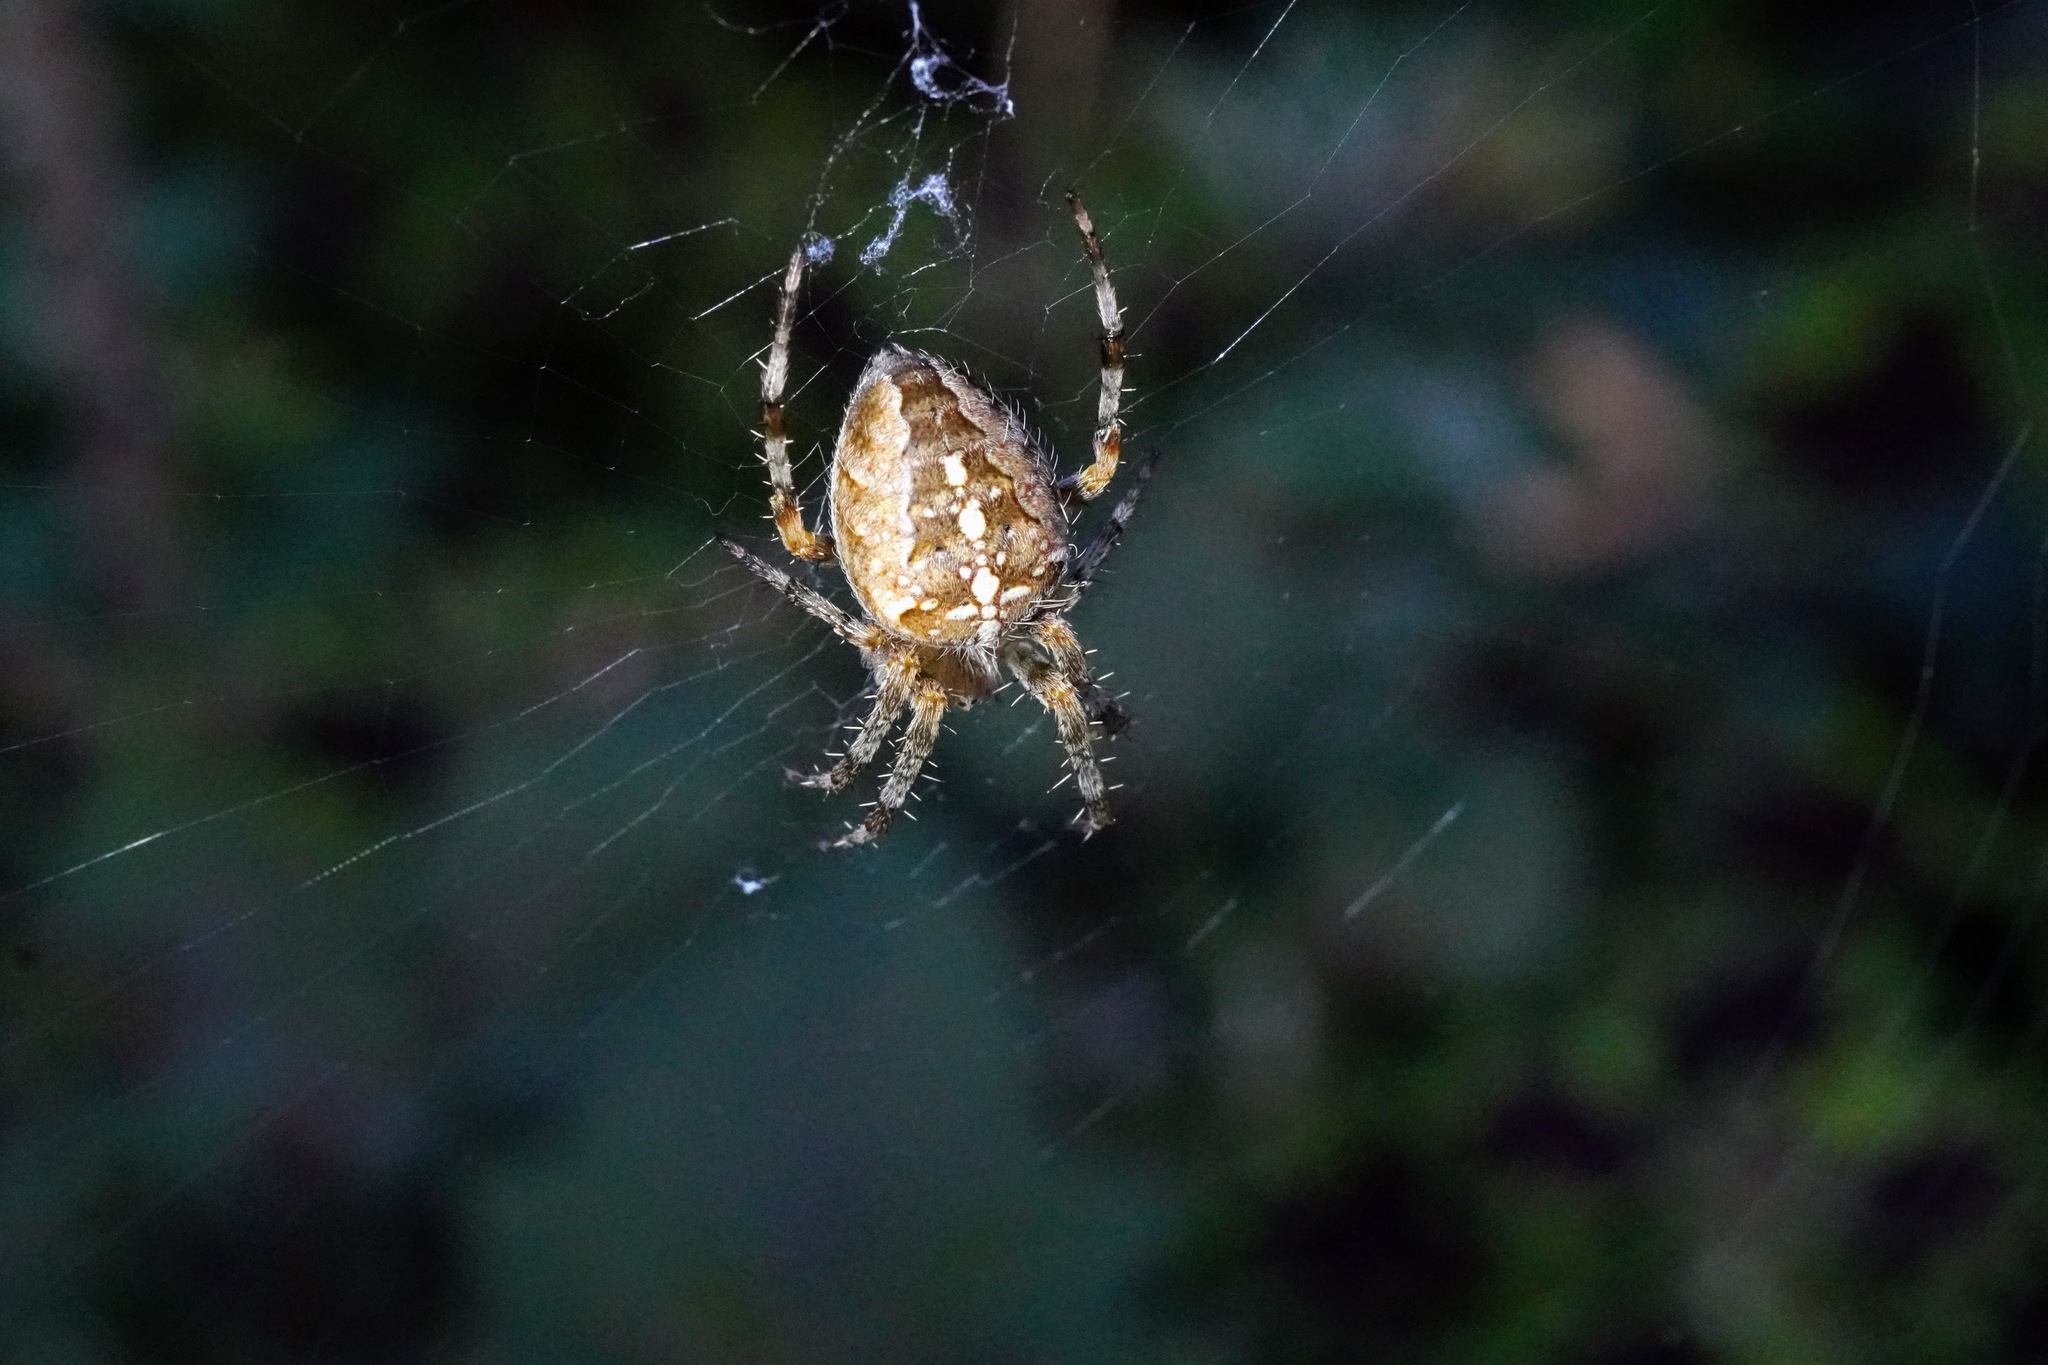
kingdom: Animalia
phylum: Arthropoda
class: Arachnida
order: Araneae
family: Araneidae
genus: Araneus
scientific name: Araneus diadematus
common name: Cross orbweaver
